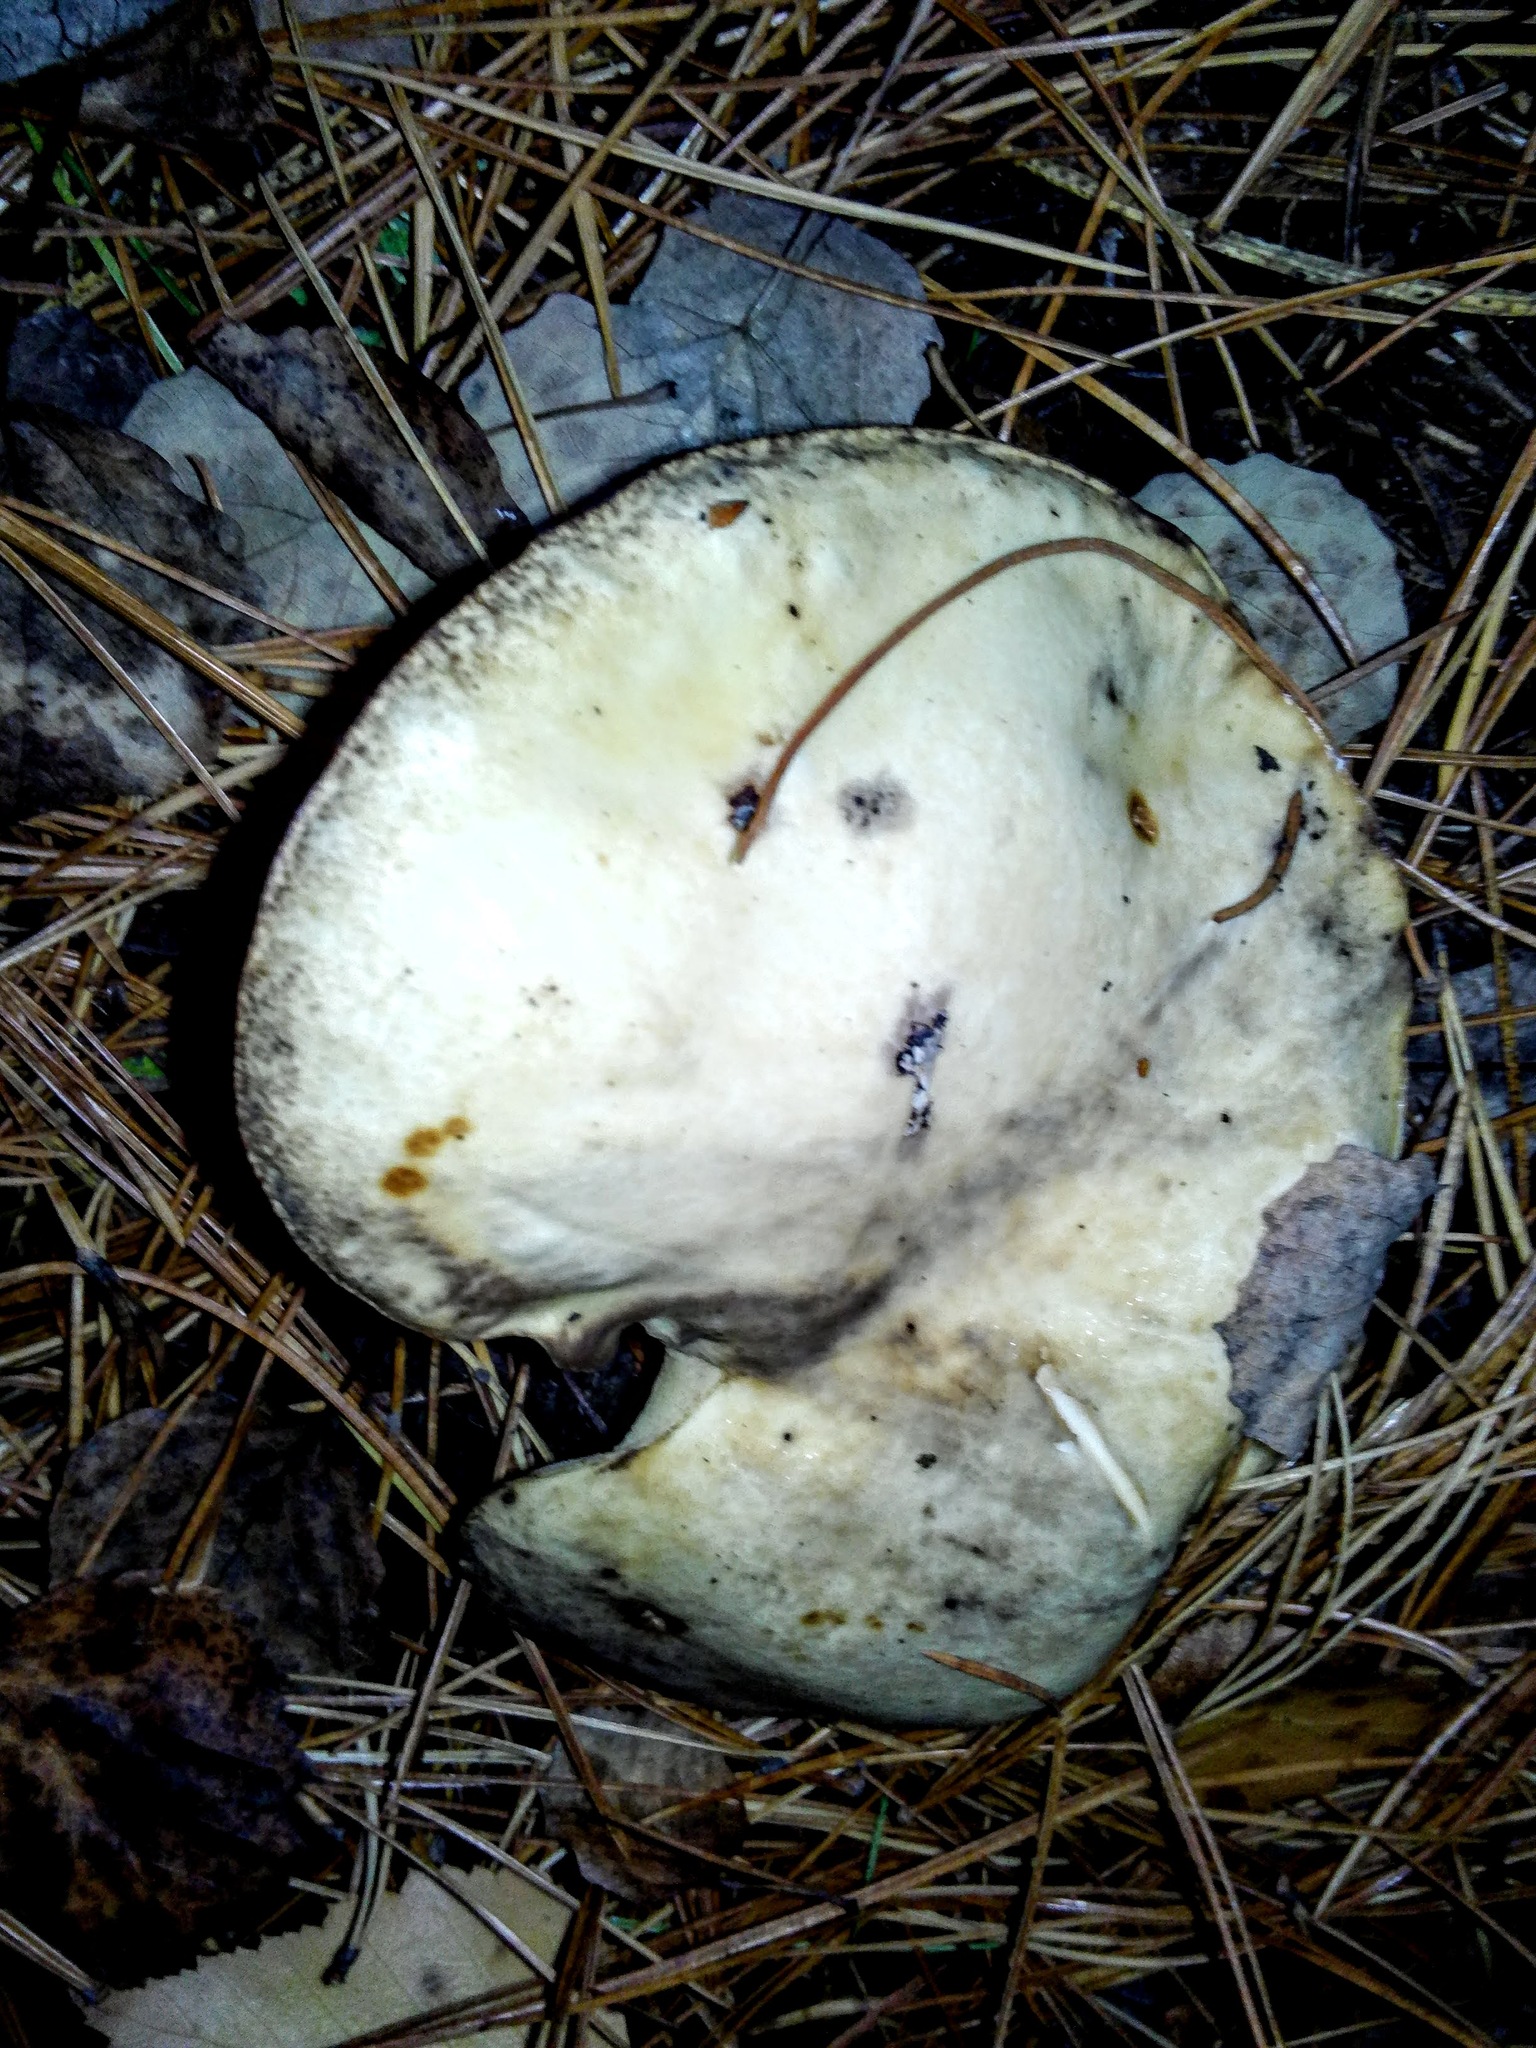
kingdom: Fungi
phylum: Basidiomycota
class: Agaricomycetes
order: Boletales
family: Suillaceae
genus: Suillus
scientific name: Suillus placidus
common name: Slippery white bolete
